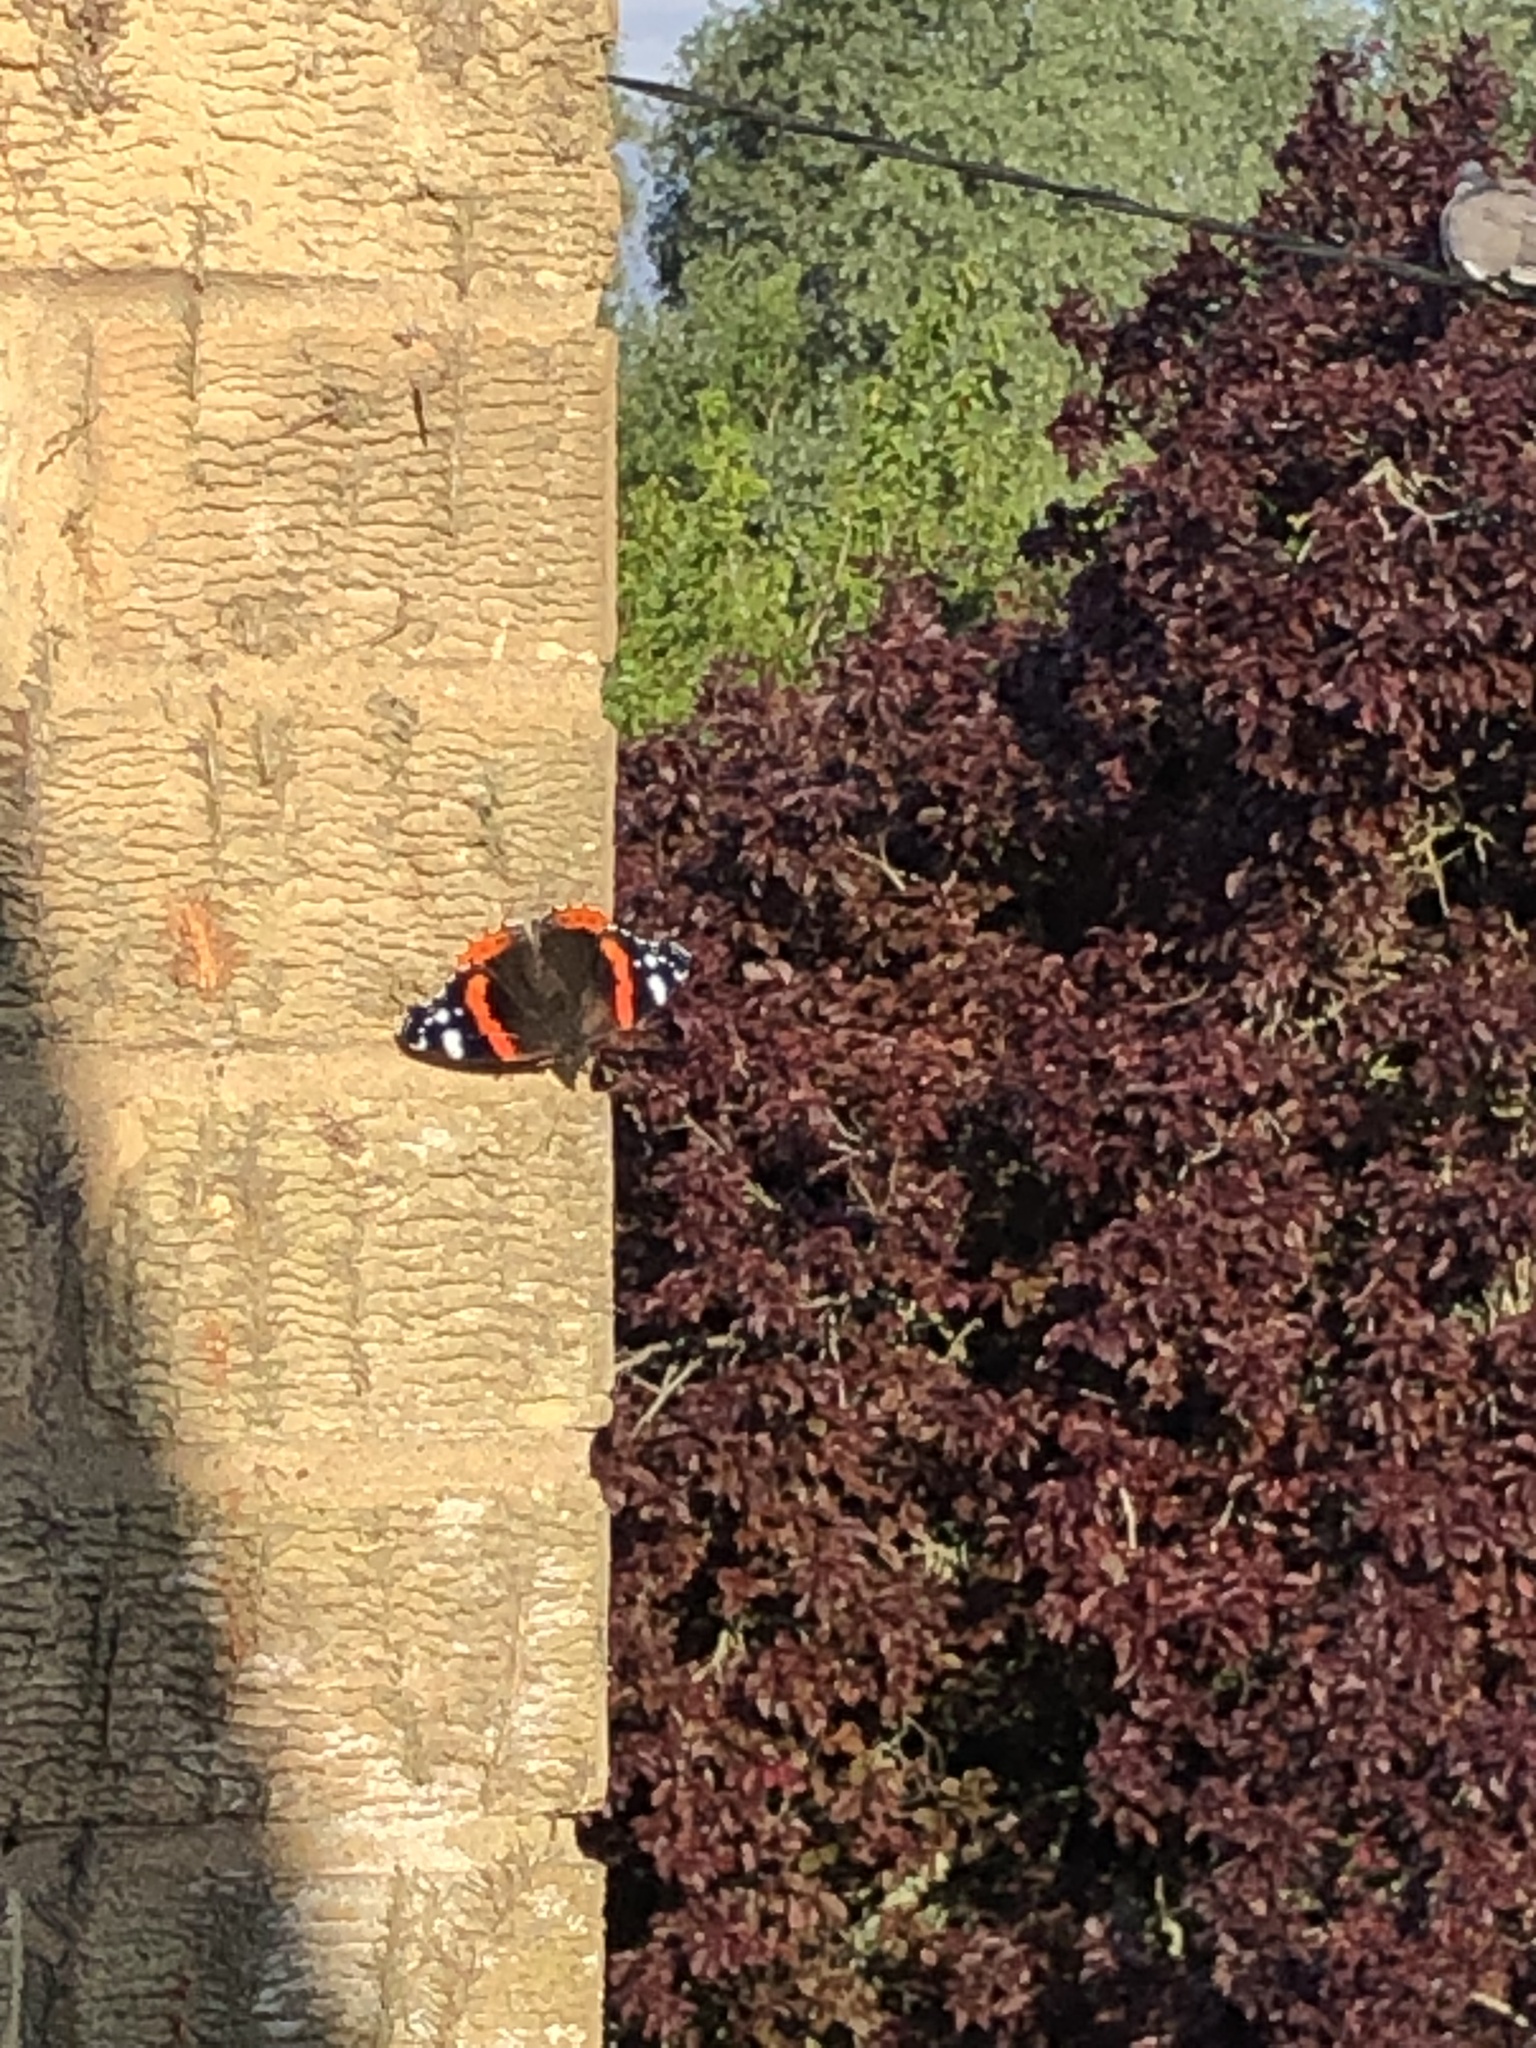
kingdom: Animalia
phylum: Arthropoda
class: Insecta
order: Lepidoptera
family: Nymphalidae
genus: Vanessa
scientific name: Vanessa atalanta
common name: Red admiral
